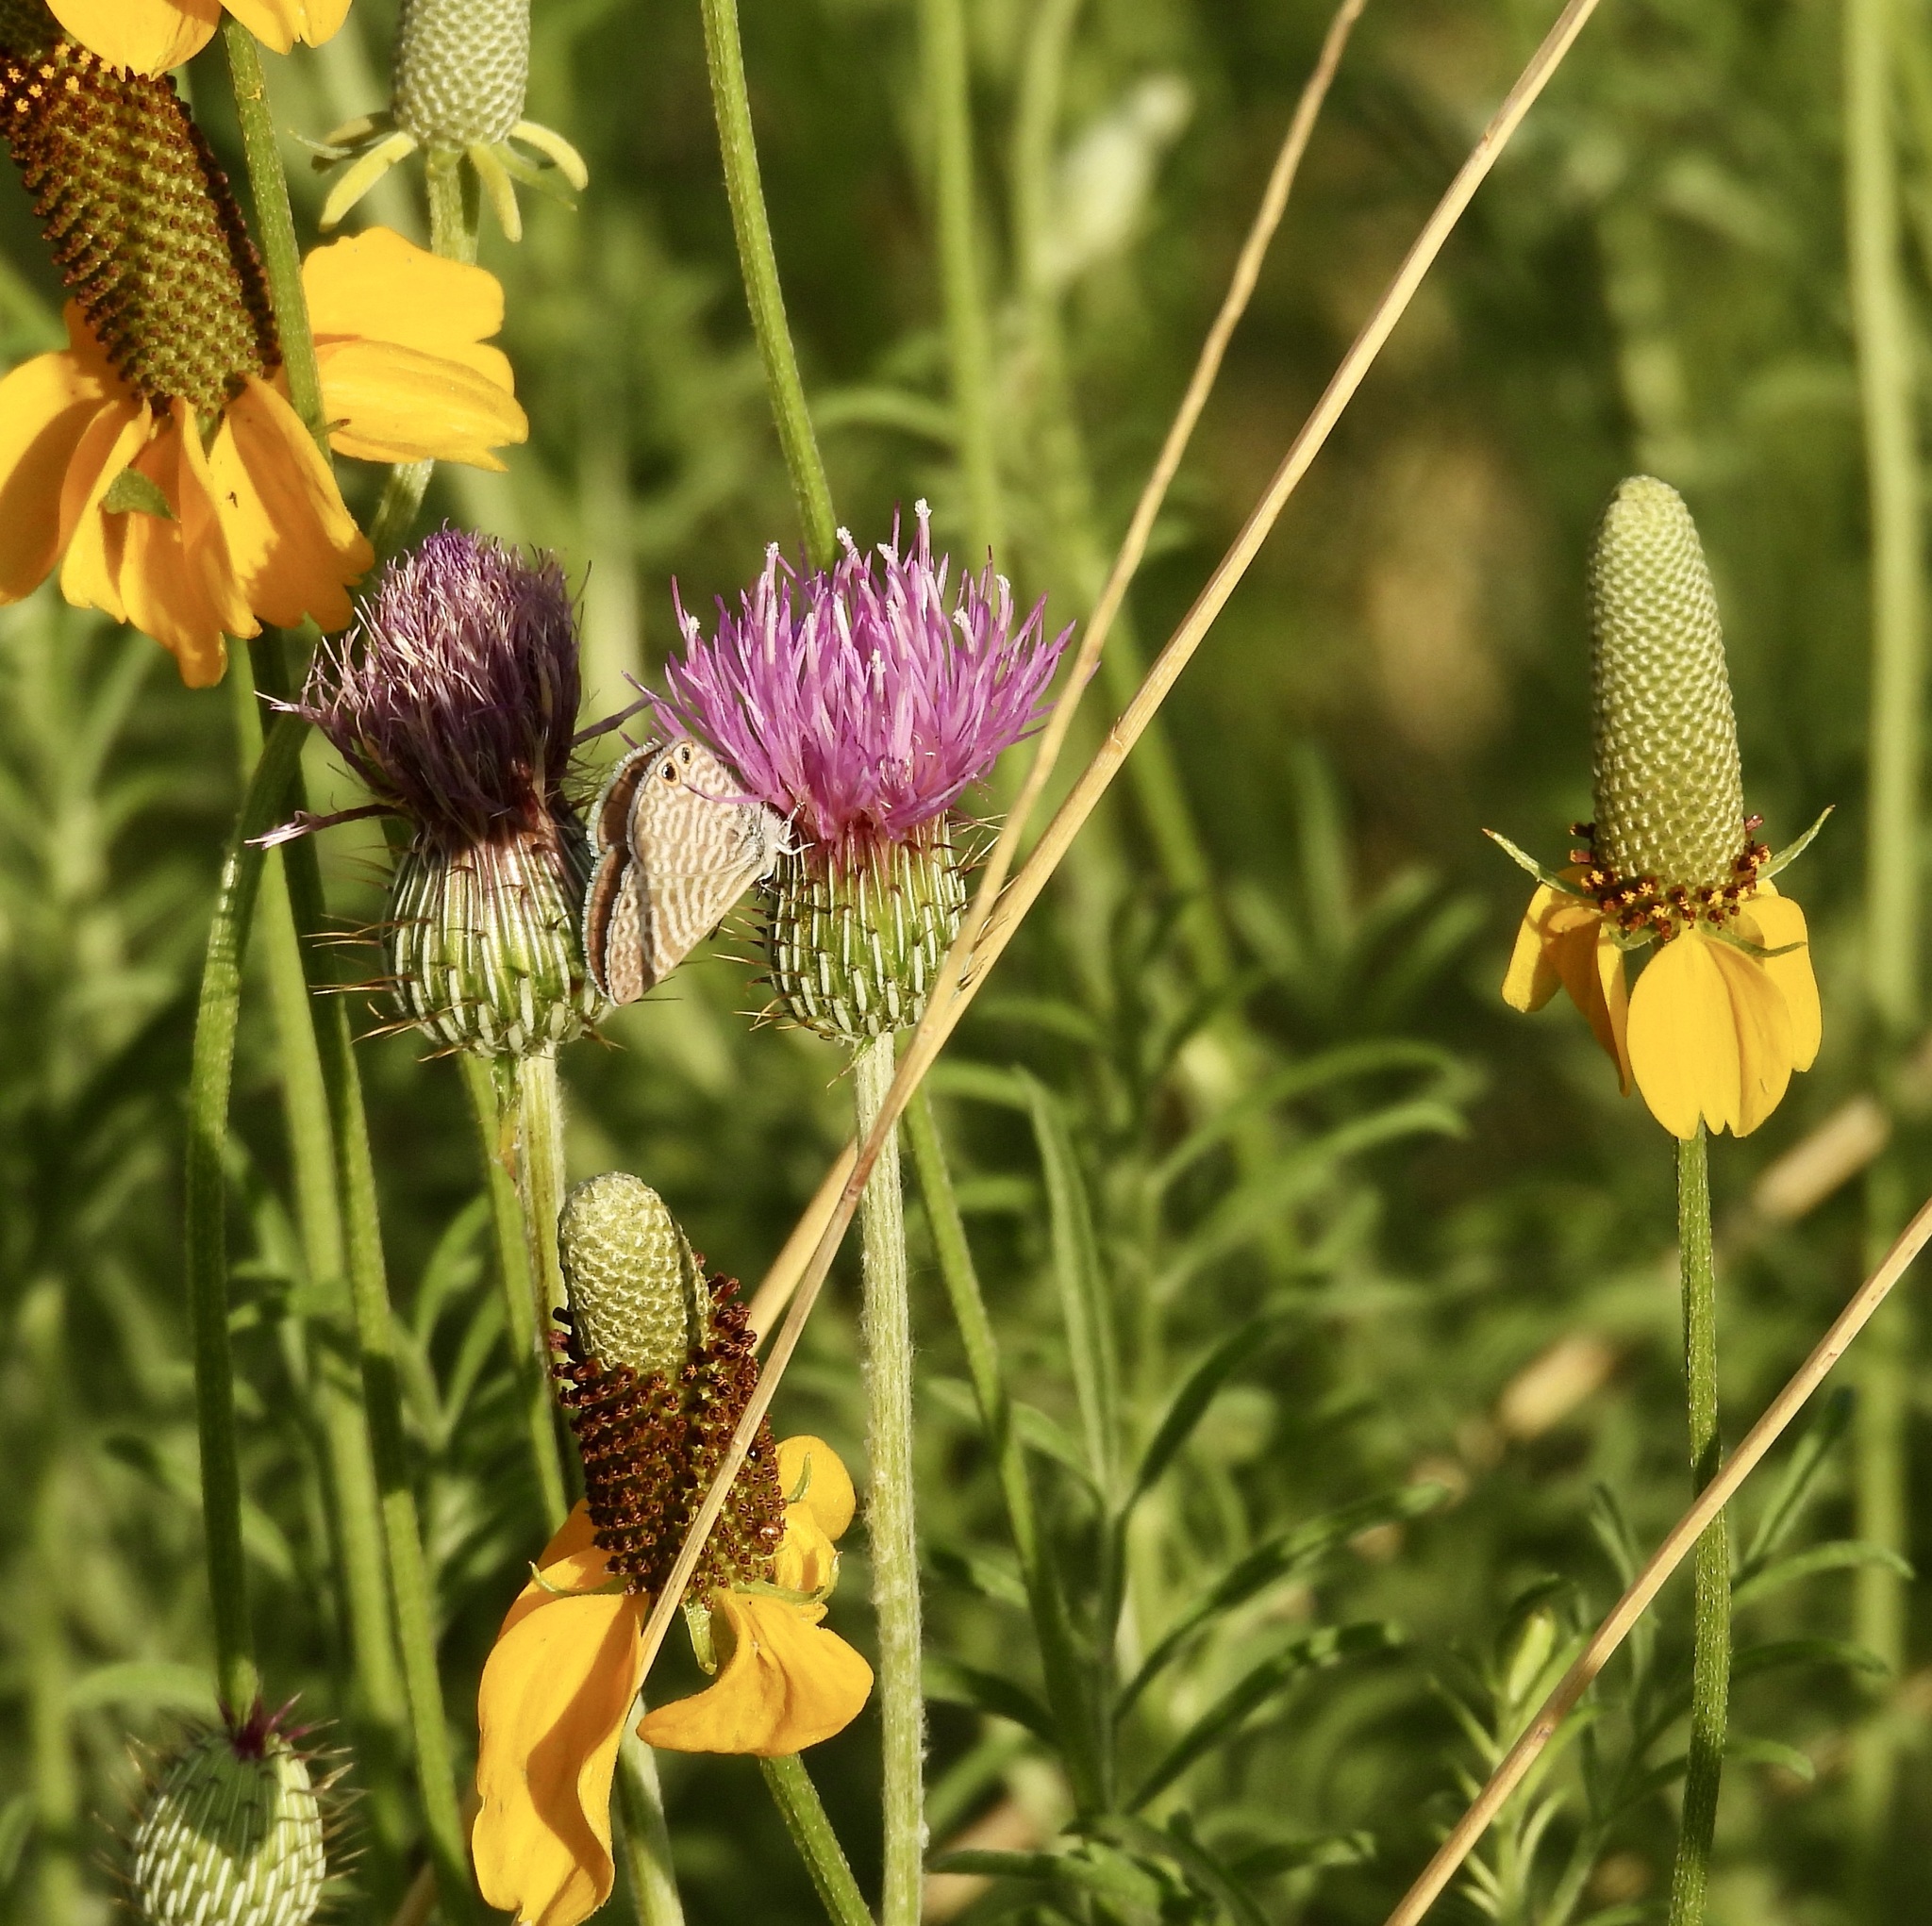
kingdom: Animalia
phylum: Arthropoda
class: Insecta
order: Lepidoptera
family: Lycaenidae
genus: Leptotes
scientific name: Leptotes marina
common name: Marine blue
